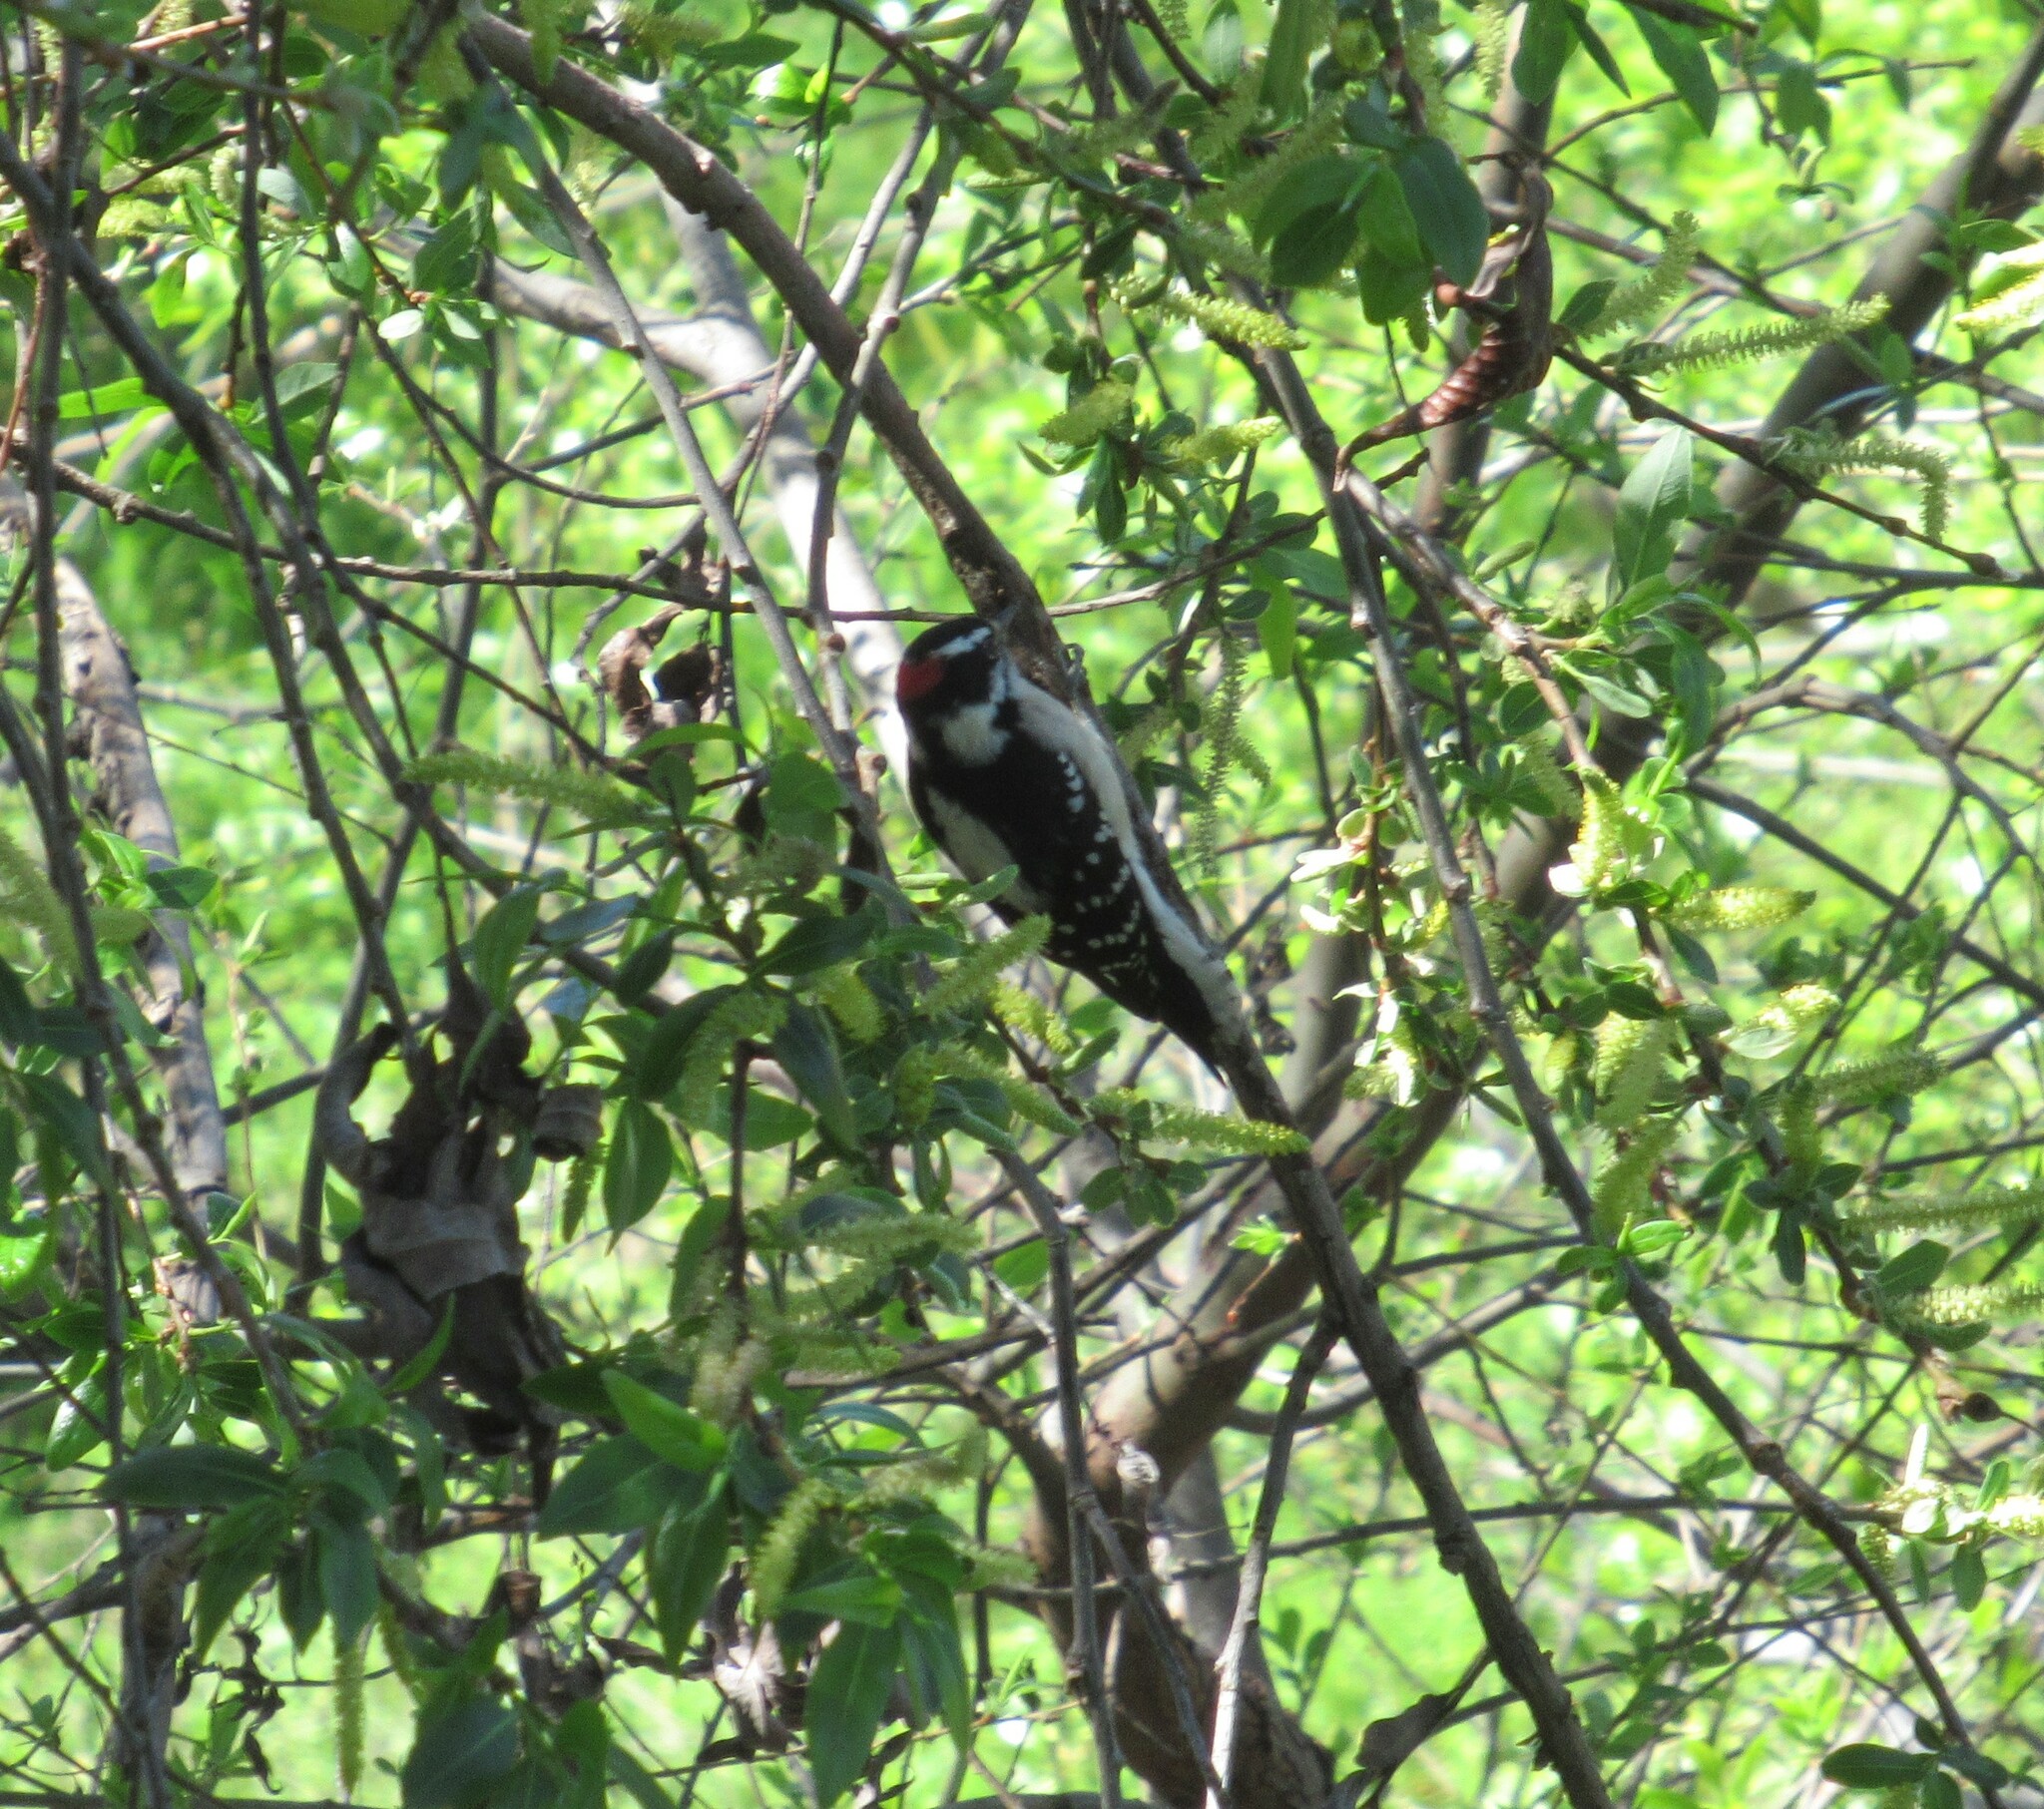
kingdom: Animalia
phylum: Chordata
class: Aves
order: Piciformes
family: Picidae
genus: Dryobates
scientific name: Dryobates pubescens
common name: Downy woodpecker
